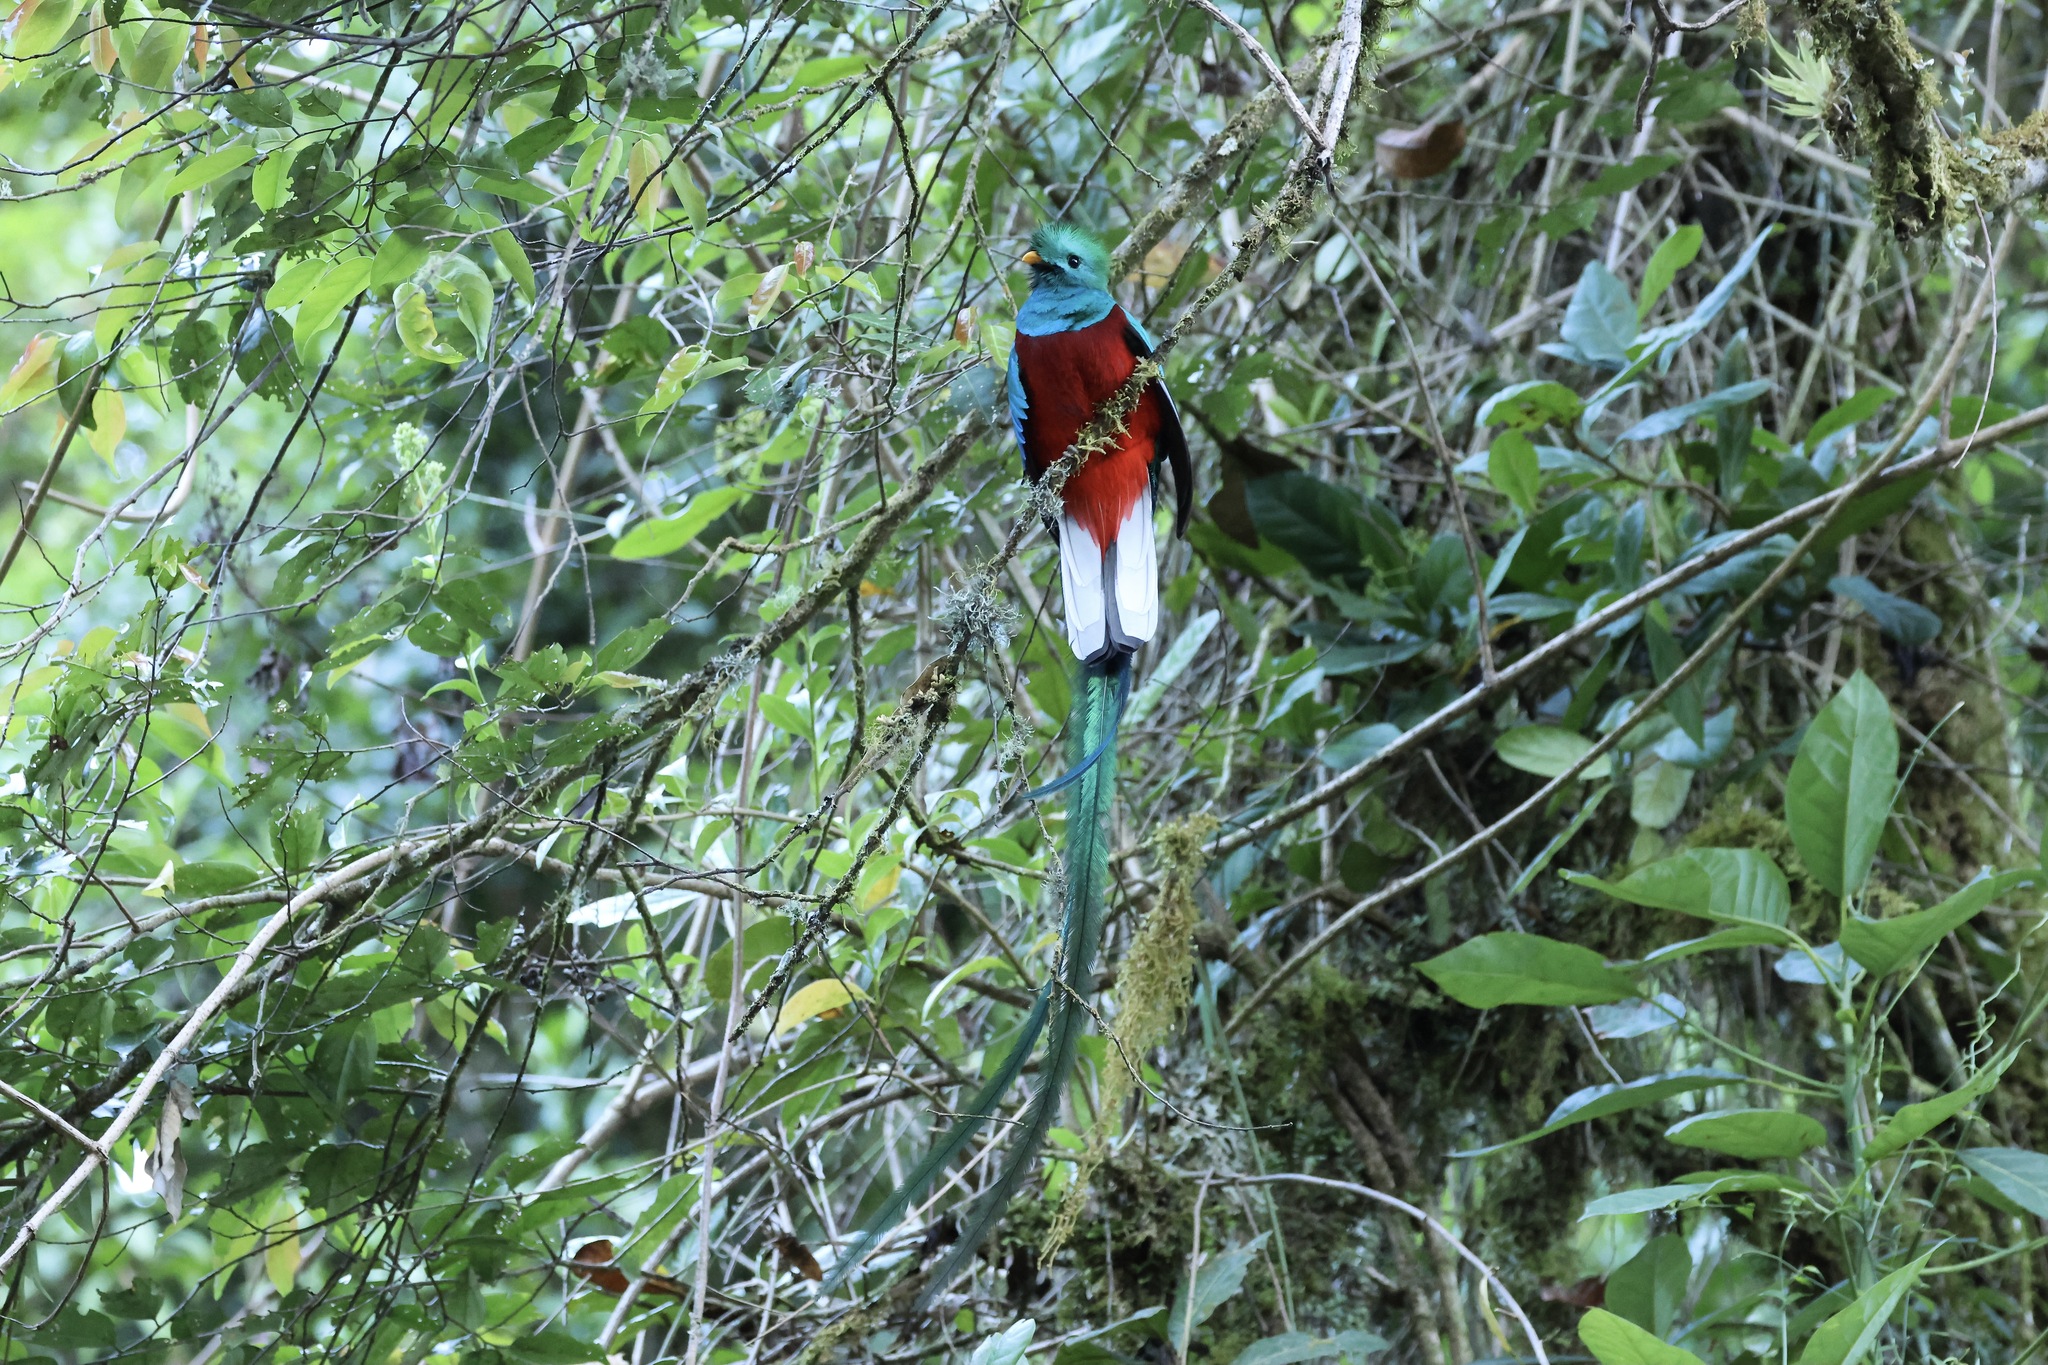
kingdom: Animalia
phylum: Chordata
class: Aves
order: Trogoniformes
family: Trogonidae
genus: Pharomachrus
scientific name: Pharomachrus mocinno
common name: Resplendent quetzal
